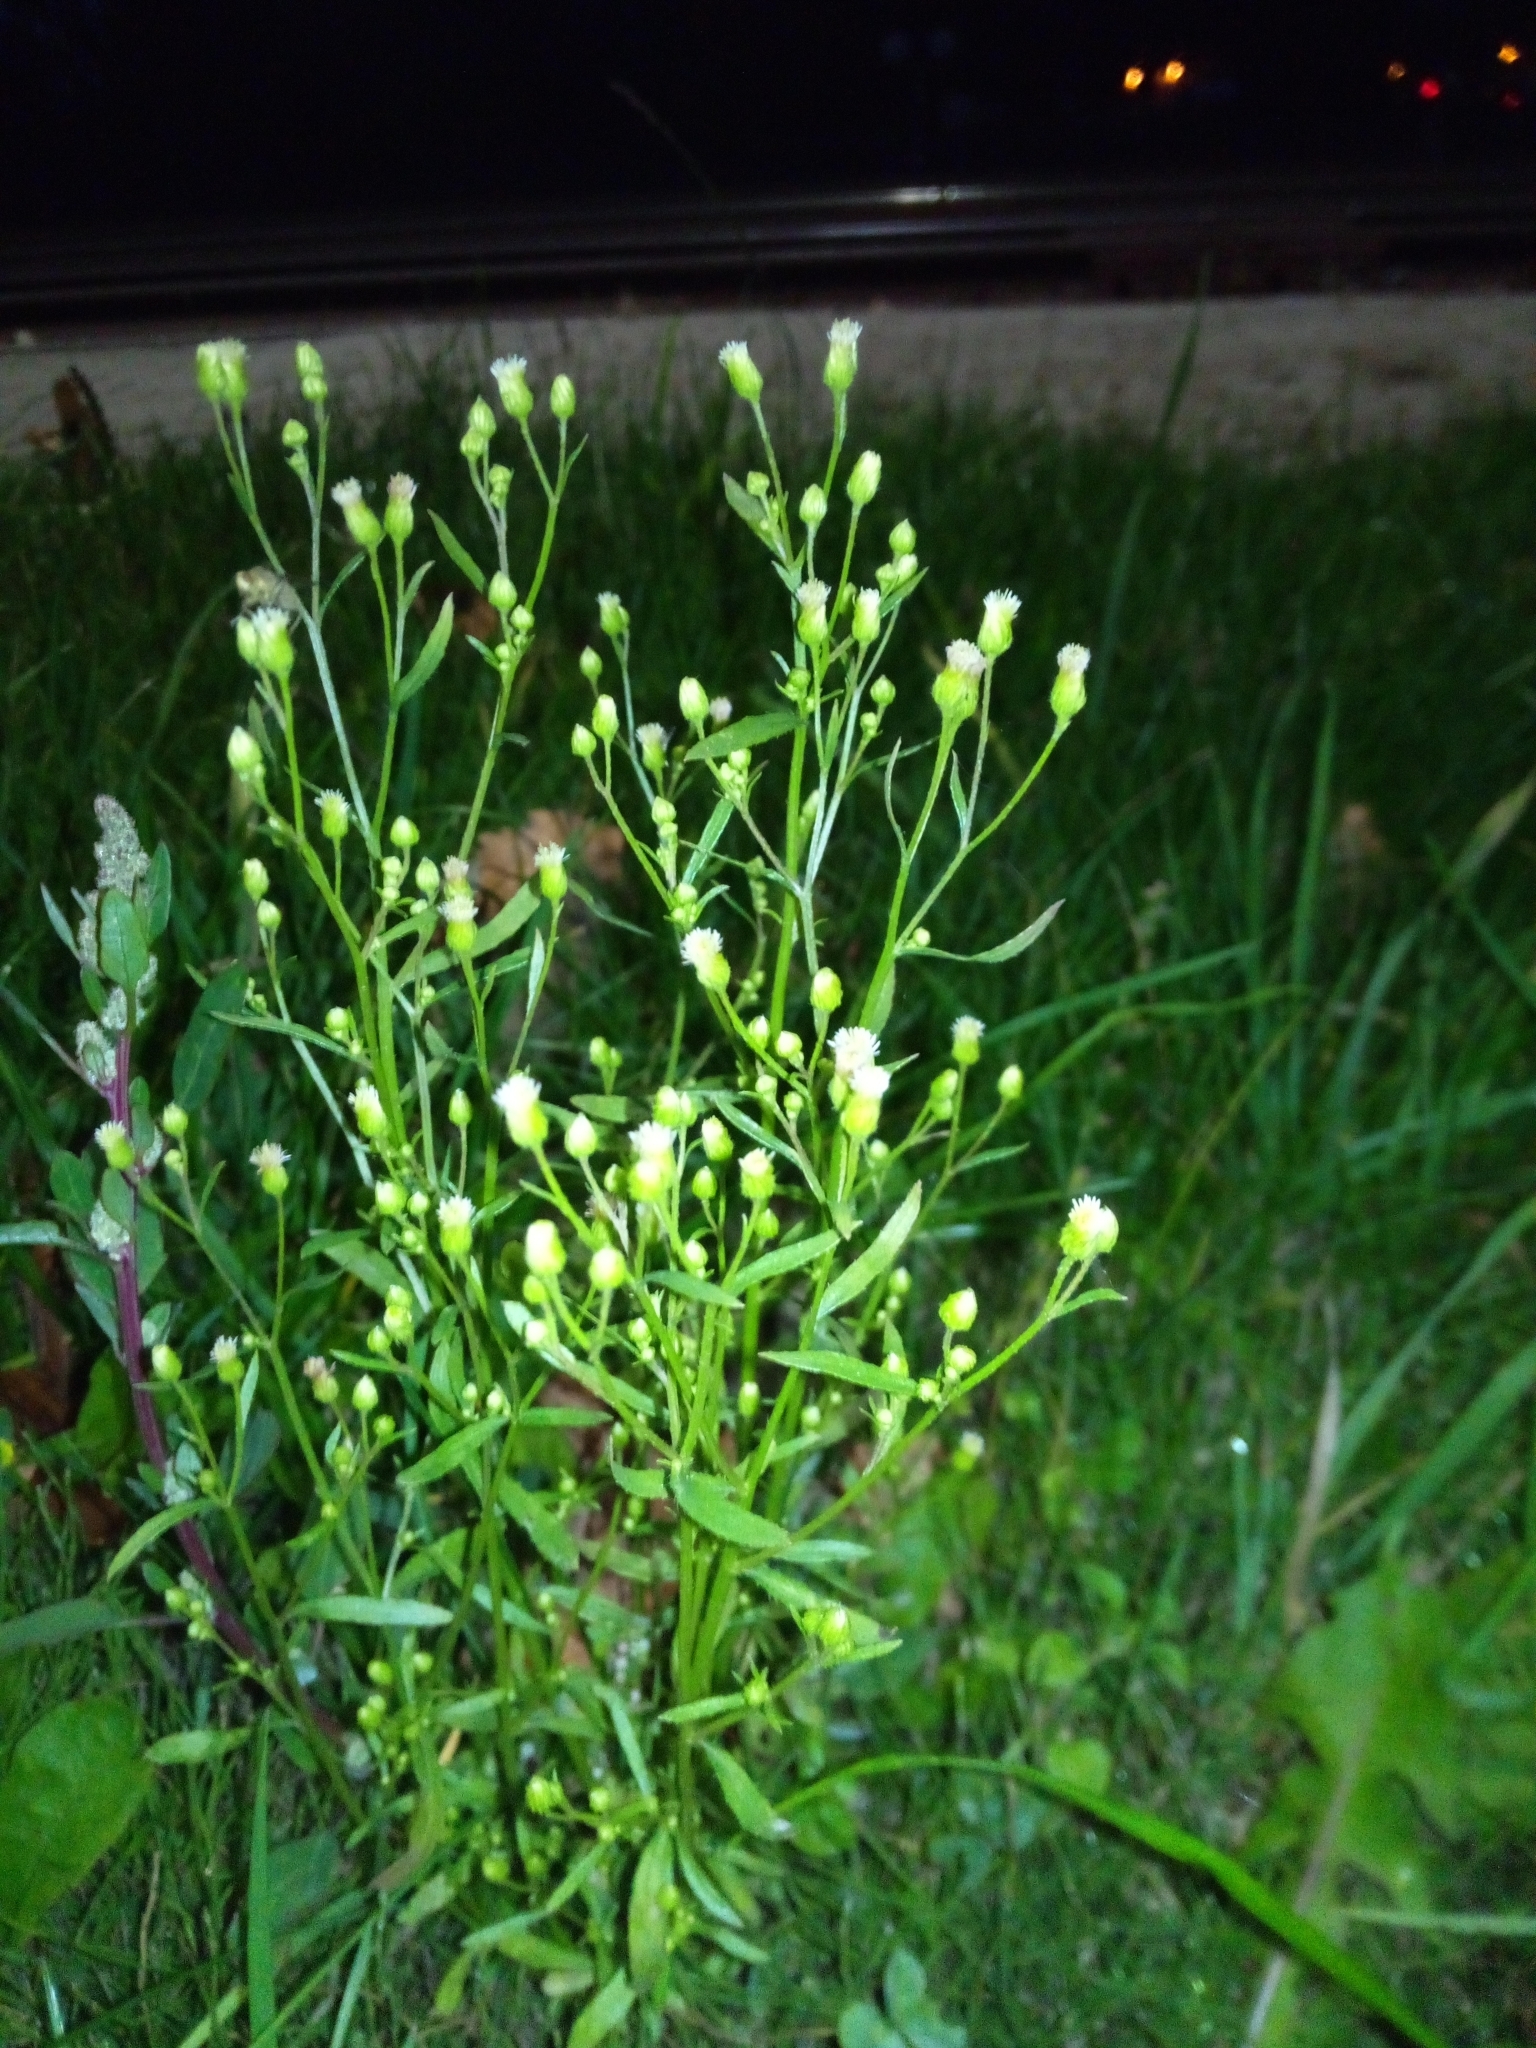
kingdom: Plantae
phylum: Tracheophyta
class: Magnoliopsida
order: Asterales
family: Asteraceae
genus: Erigeron
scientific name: Erigeron canadensis
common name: Canadian fleabane
